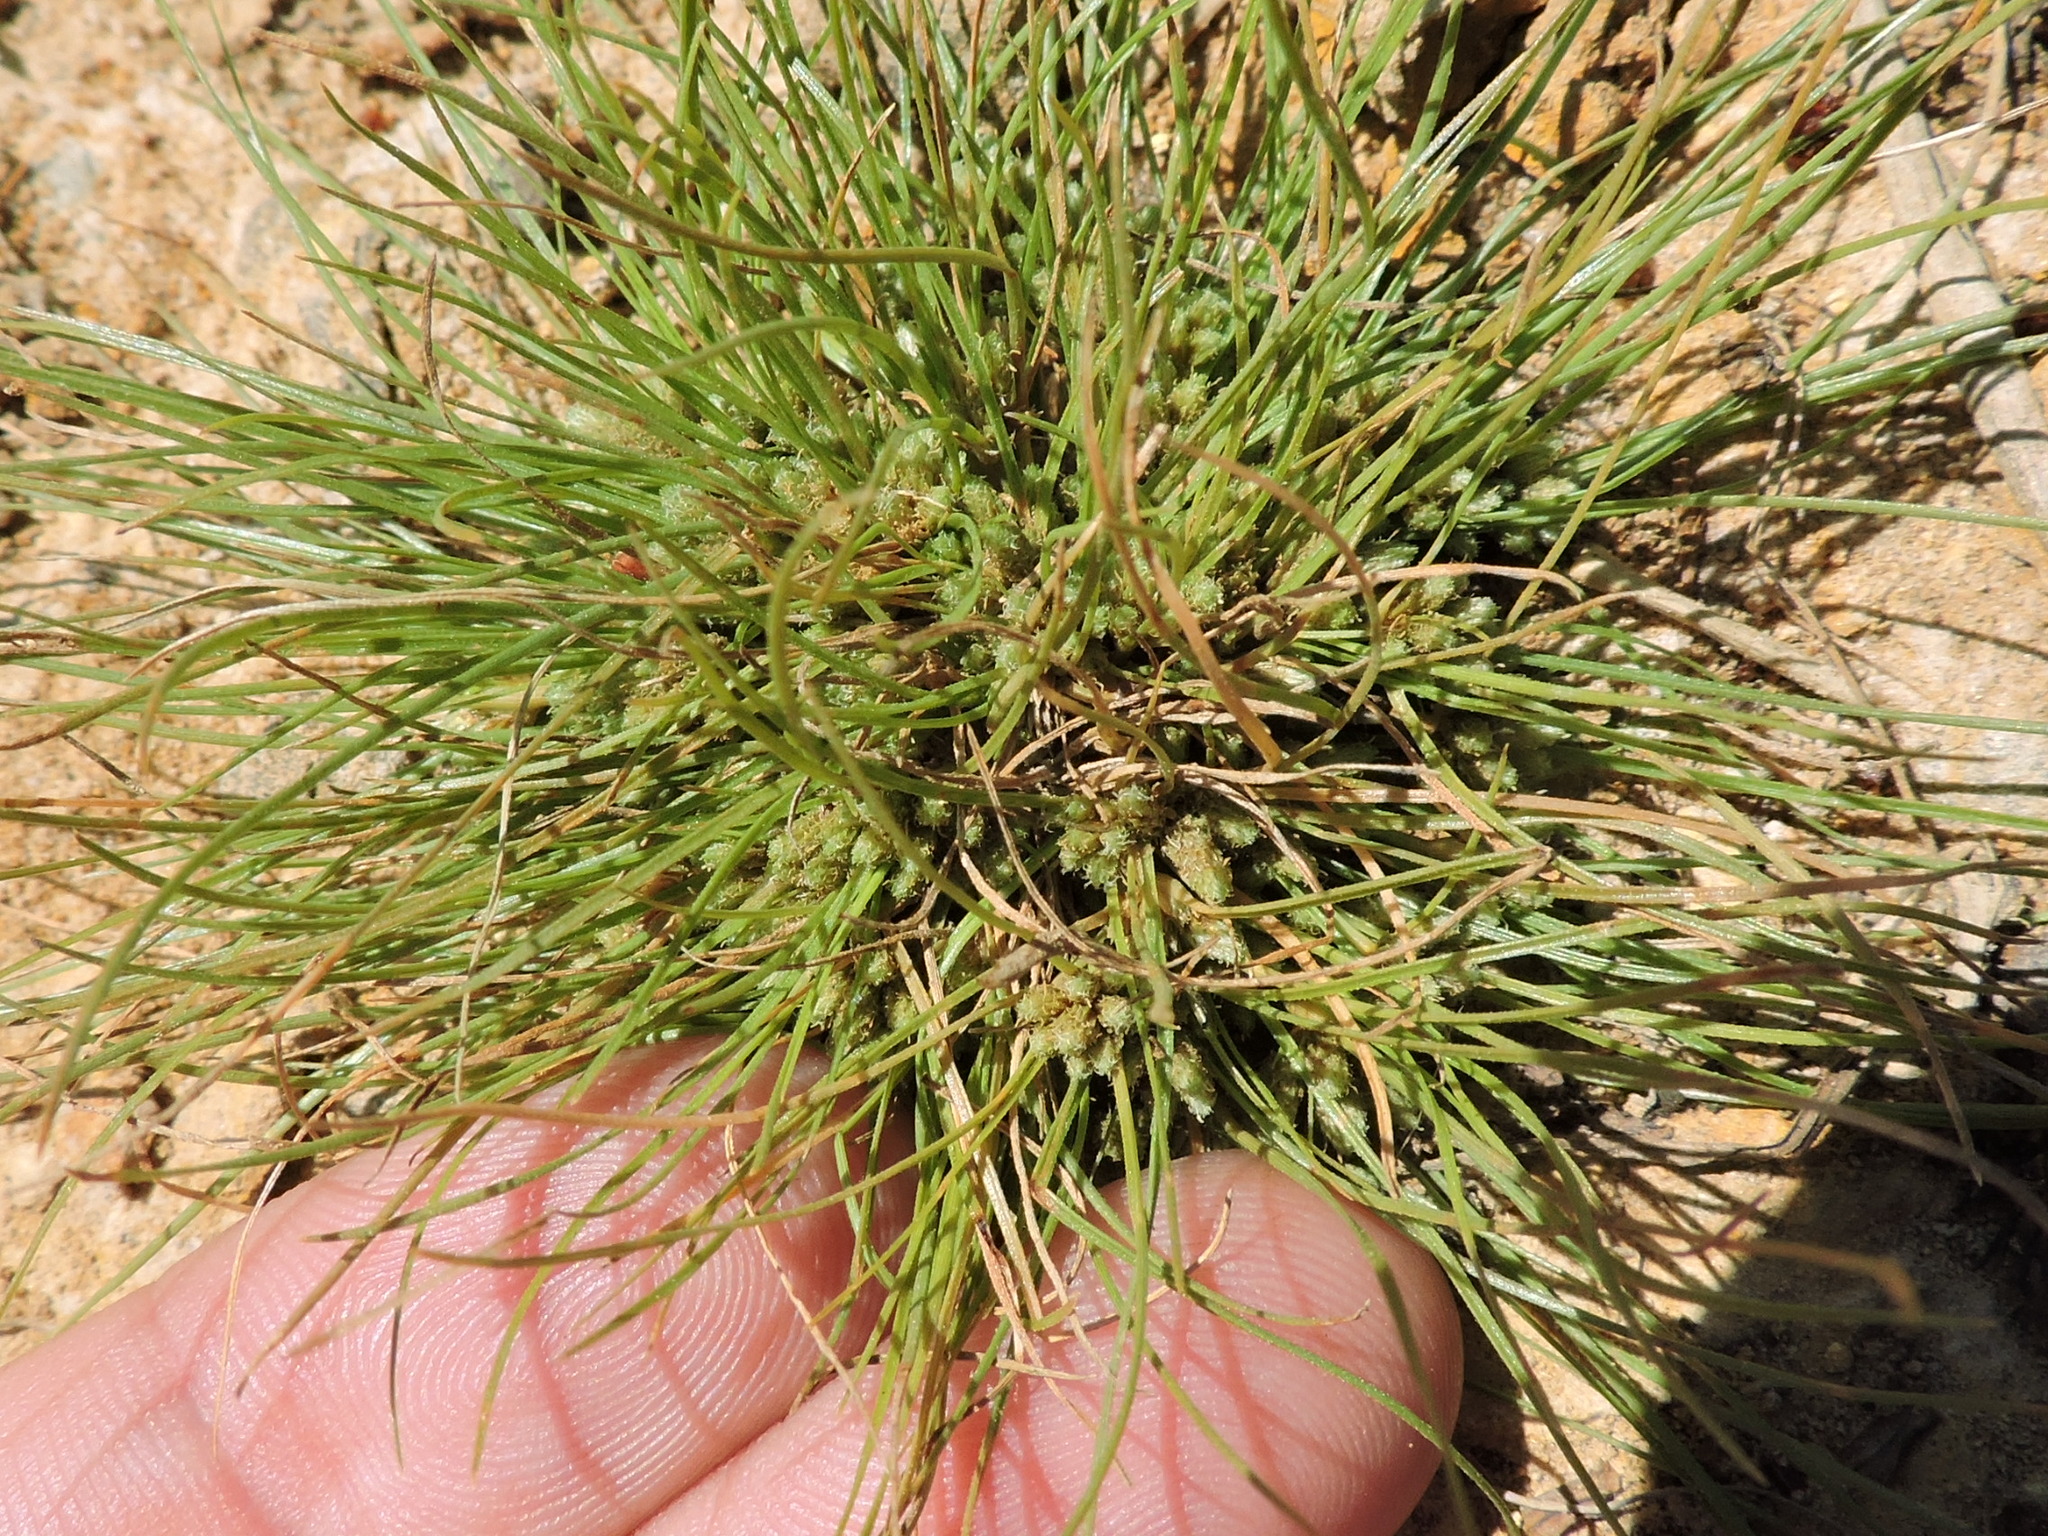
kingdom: Plantae
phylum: Tracheophyta
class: Liliopsida
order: Poales
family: Cyperaceae
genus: Fimbristylis
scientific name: Fimbristylis vahlii
